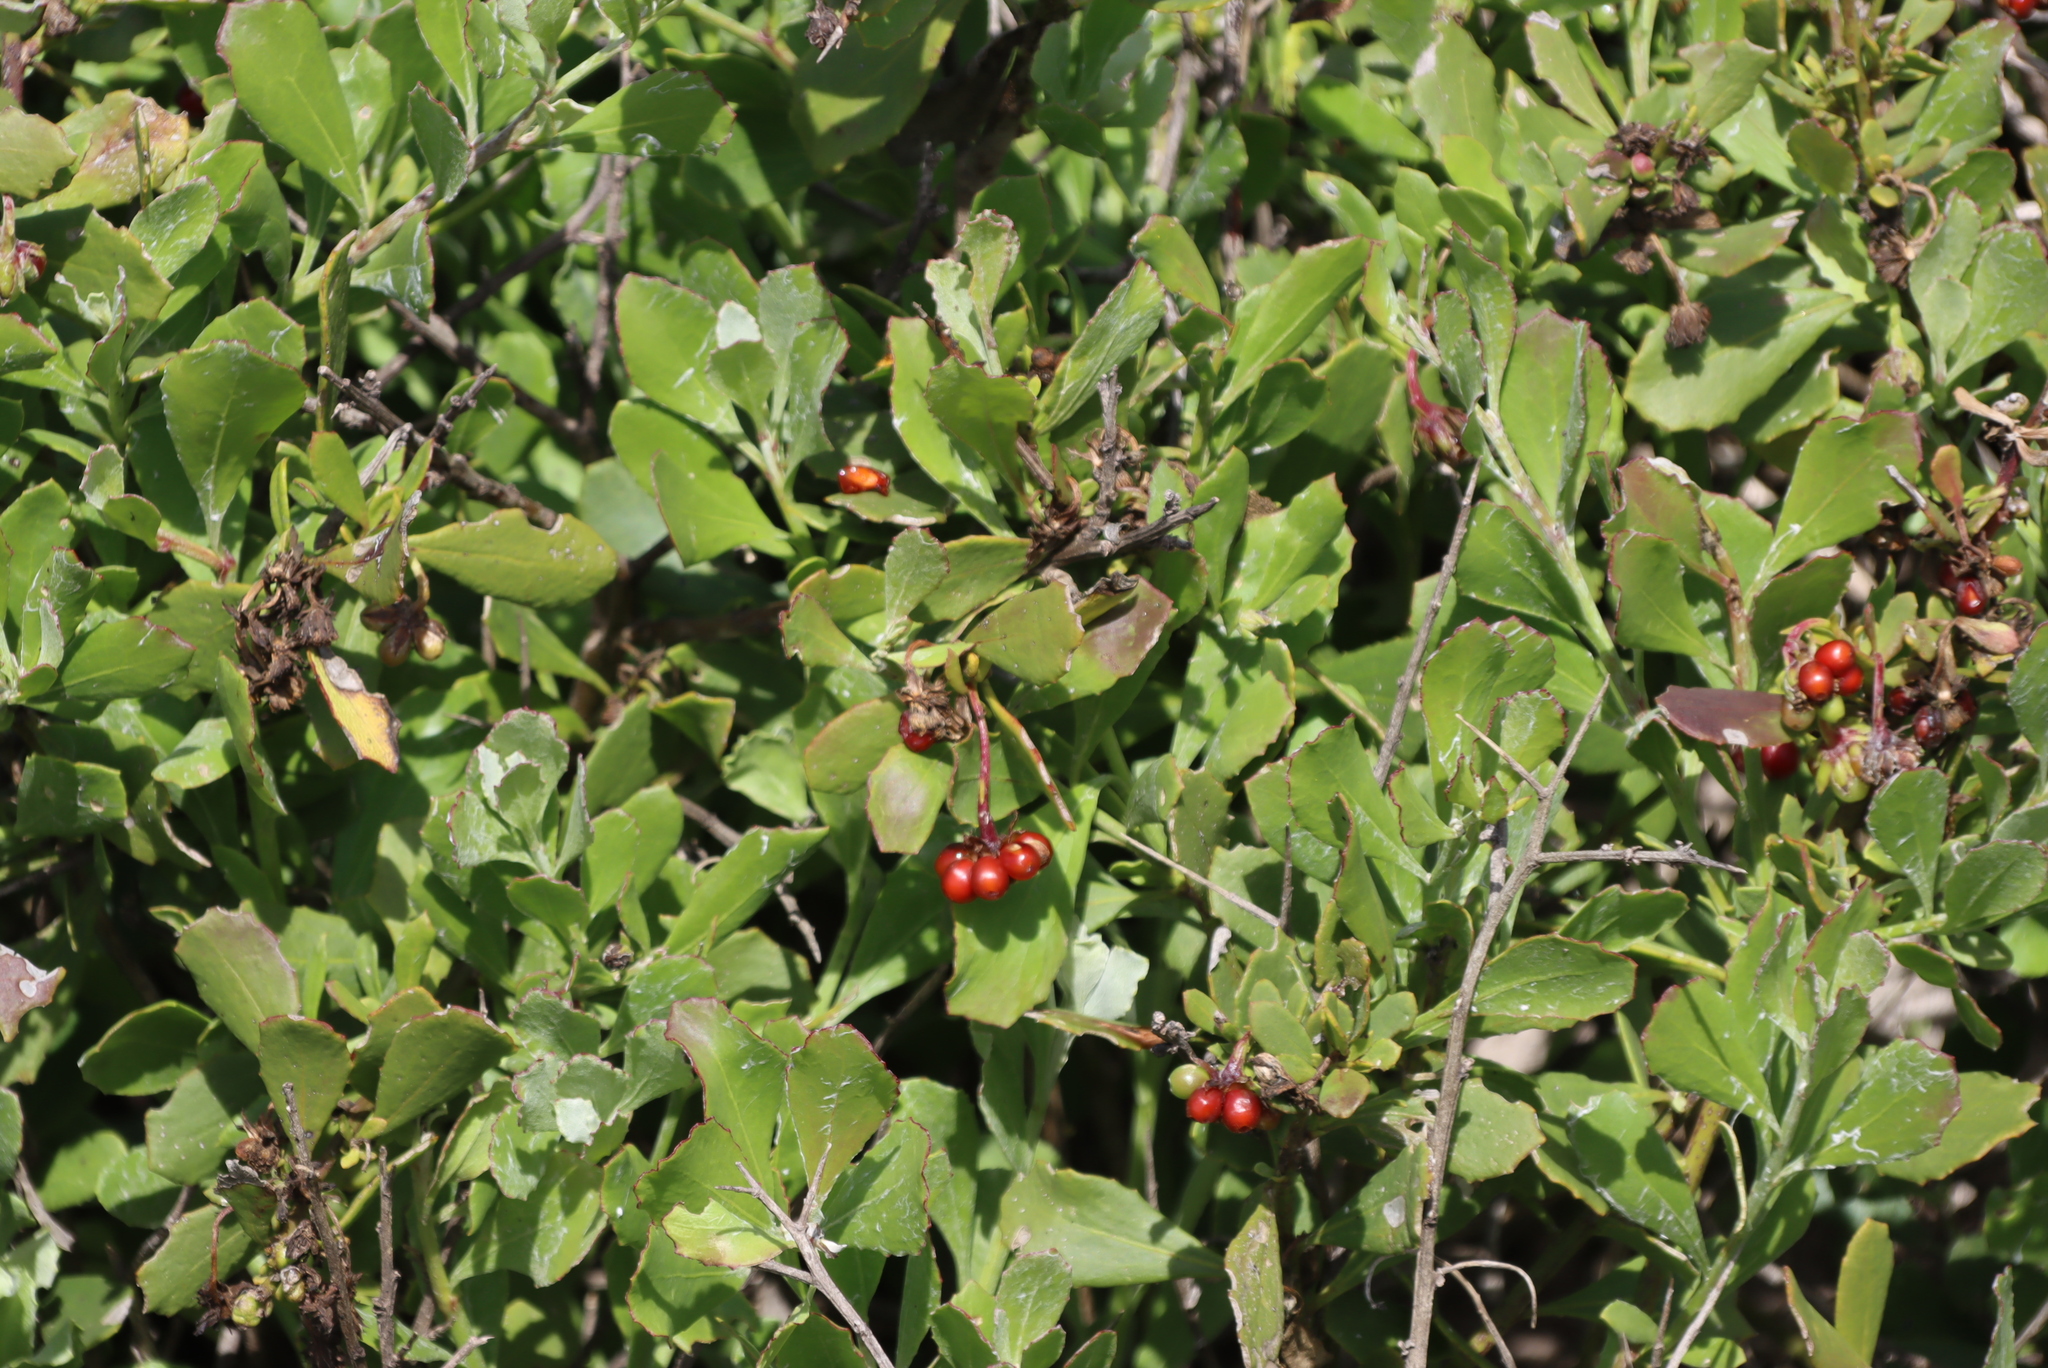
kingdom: Plantae
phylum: Tracheophyta
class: Magnoliopsida
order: Asterales
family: Asteraceae
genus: Osteospermum
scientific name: Osteospermum moniliferum
